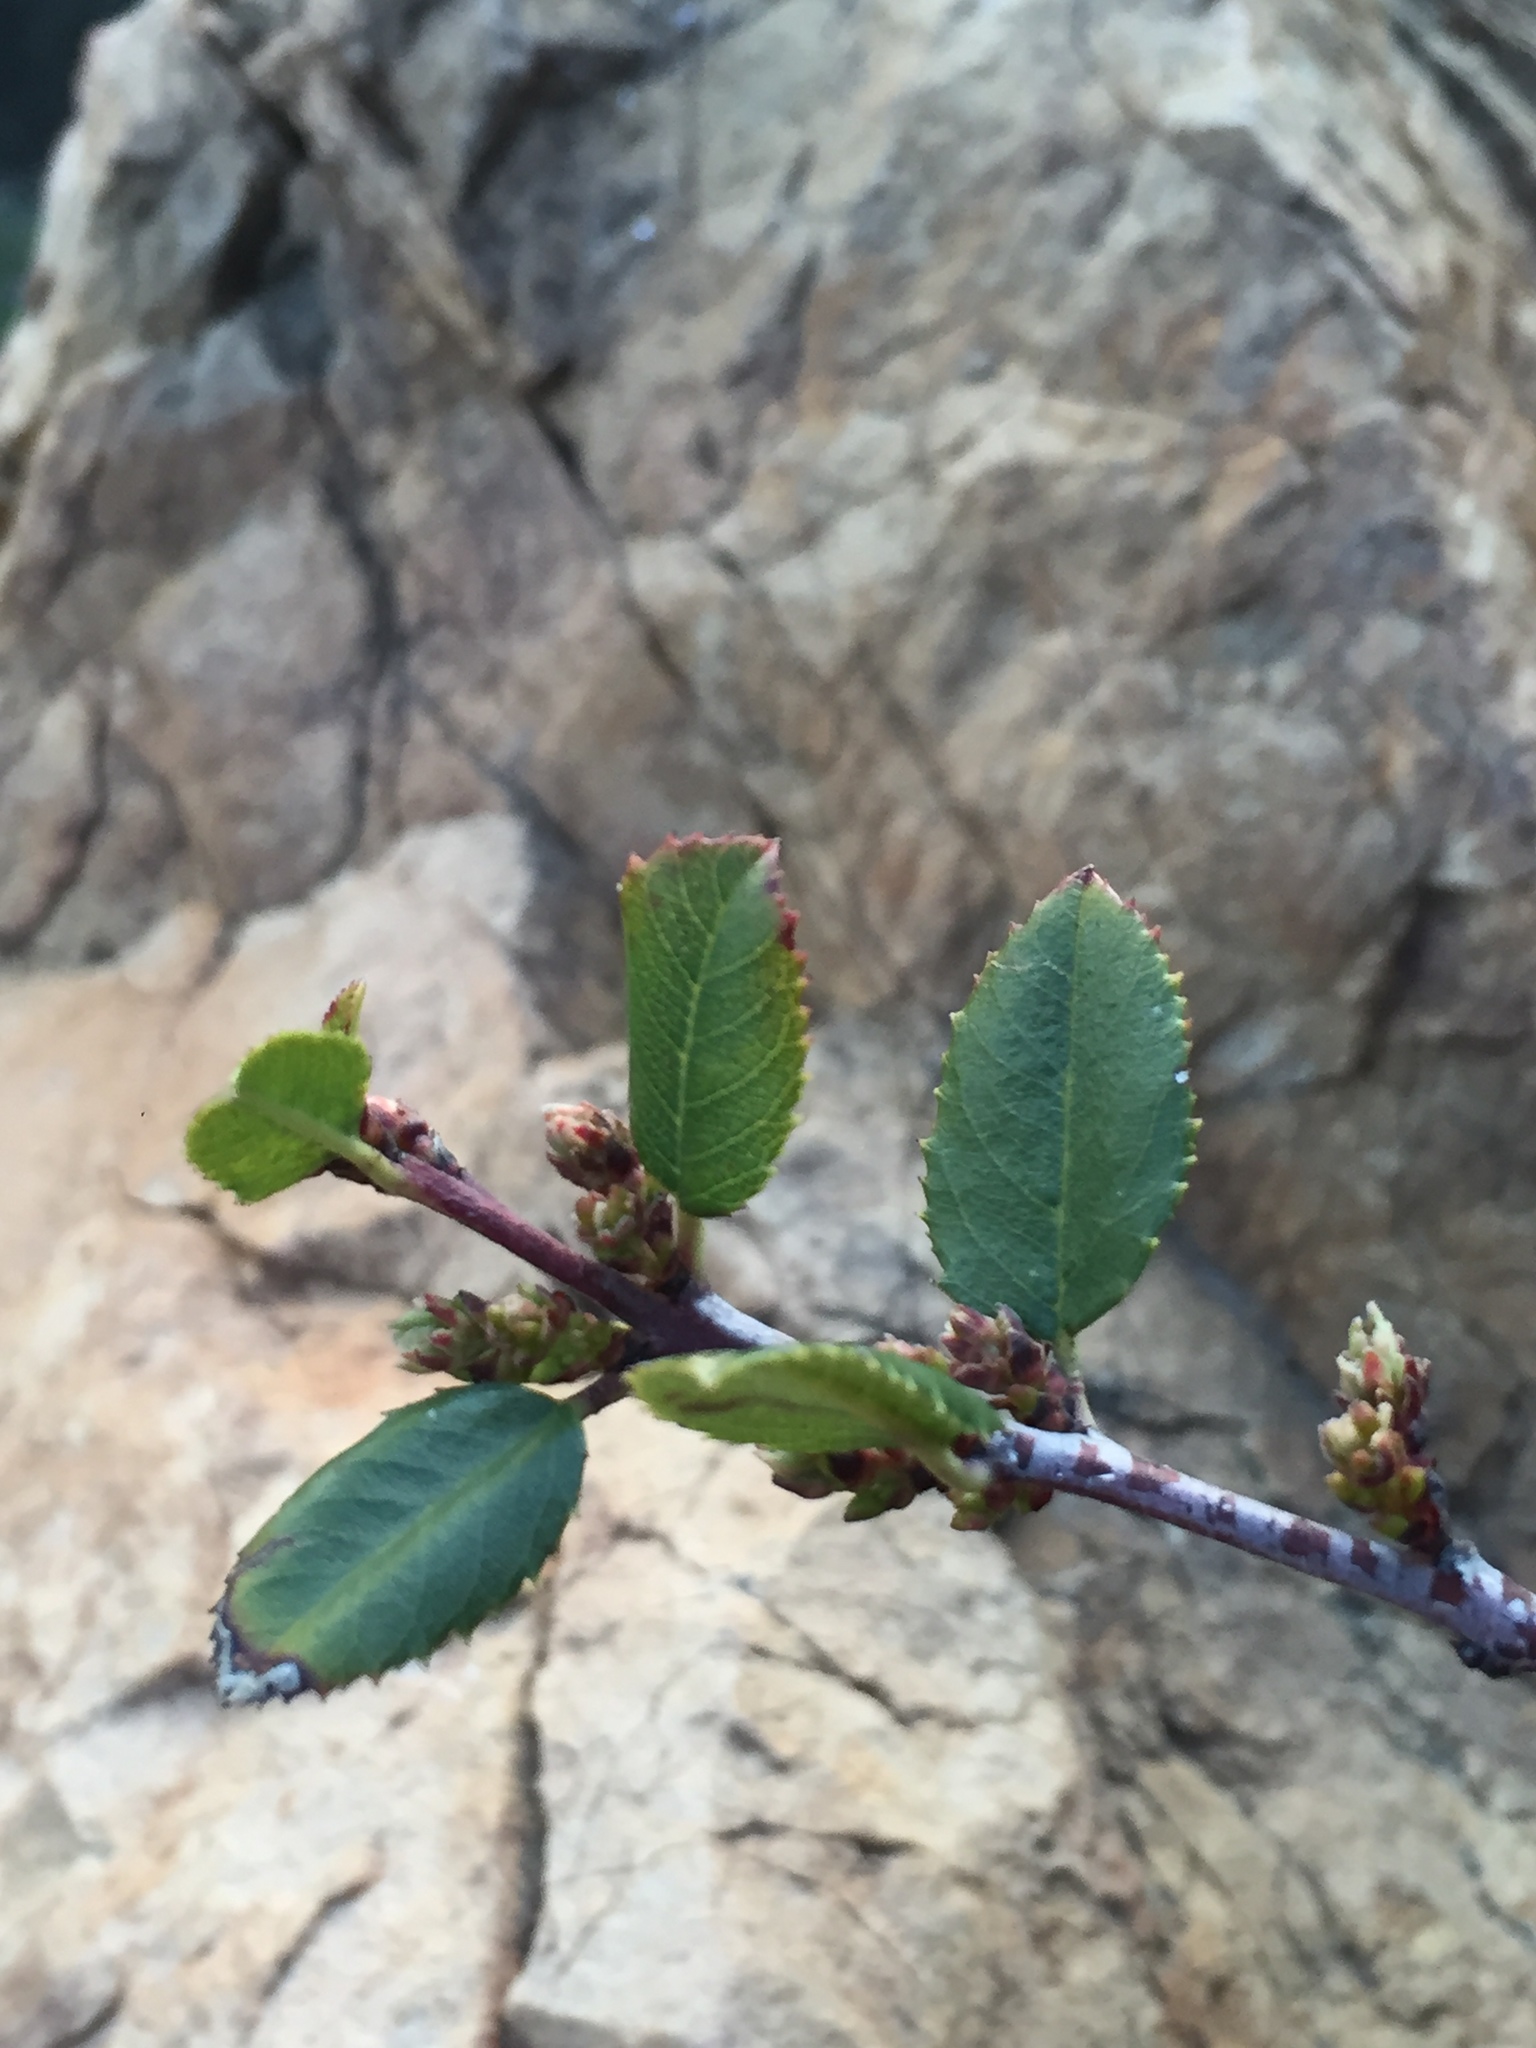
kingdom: Plantae
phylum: Tracheophyta
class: Magnoliopsida
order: Rosales
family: Rhamnaceae
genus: Endotropis
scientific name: Endotropis crocea
